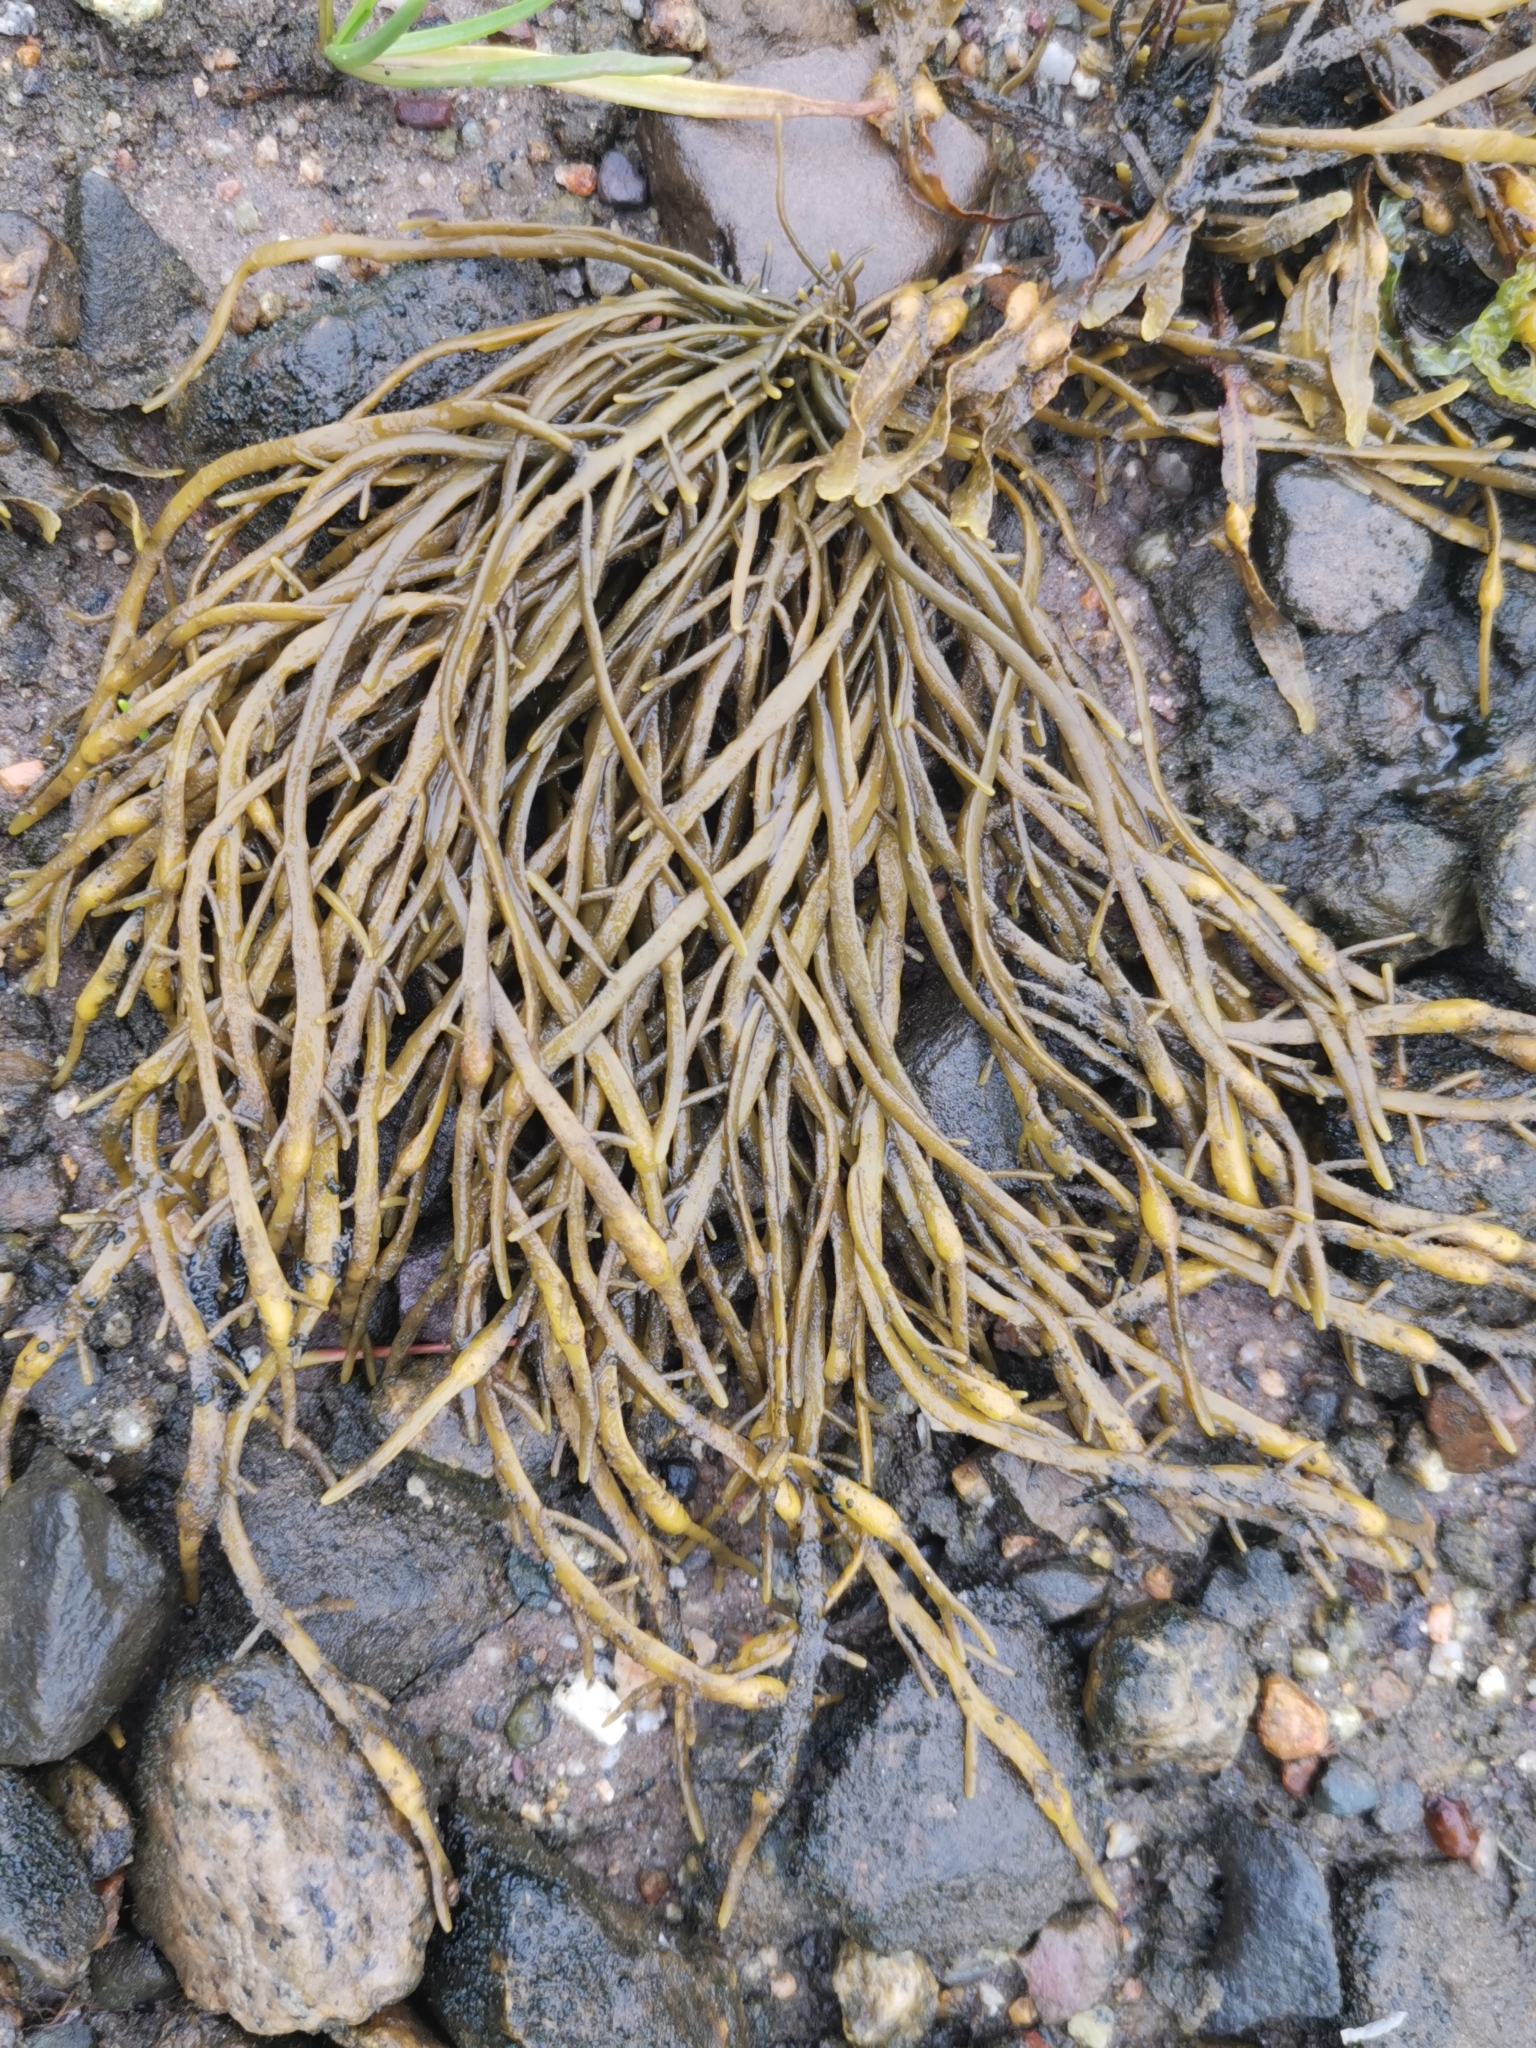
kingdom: Chromista
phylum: Ochrophyta
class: Phaeophyceae
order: Fucales
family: Fucaceae
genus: Ascophyllum
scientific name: Ascophyllum nodosum
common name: Knotted wrack
